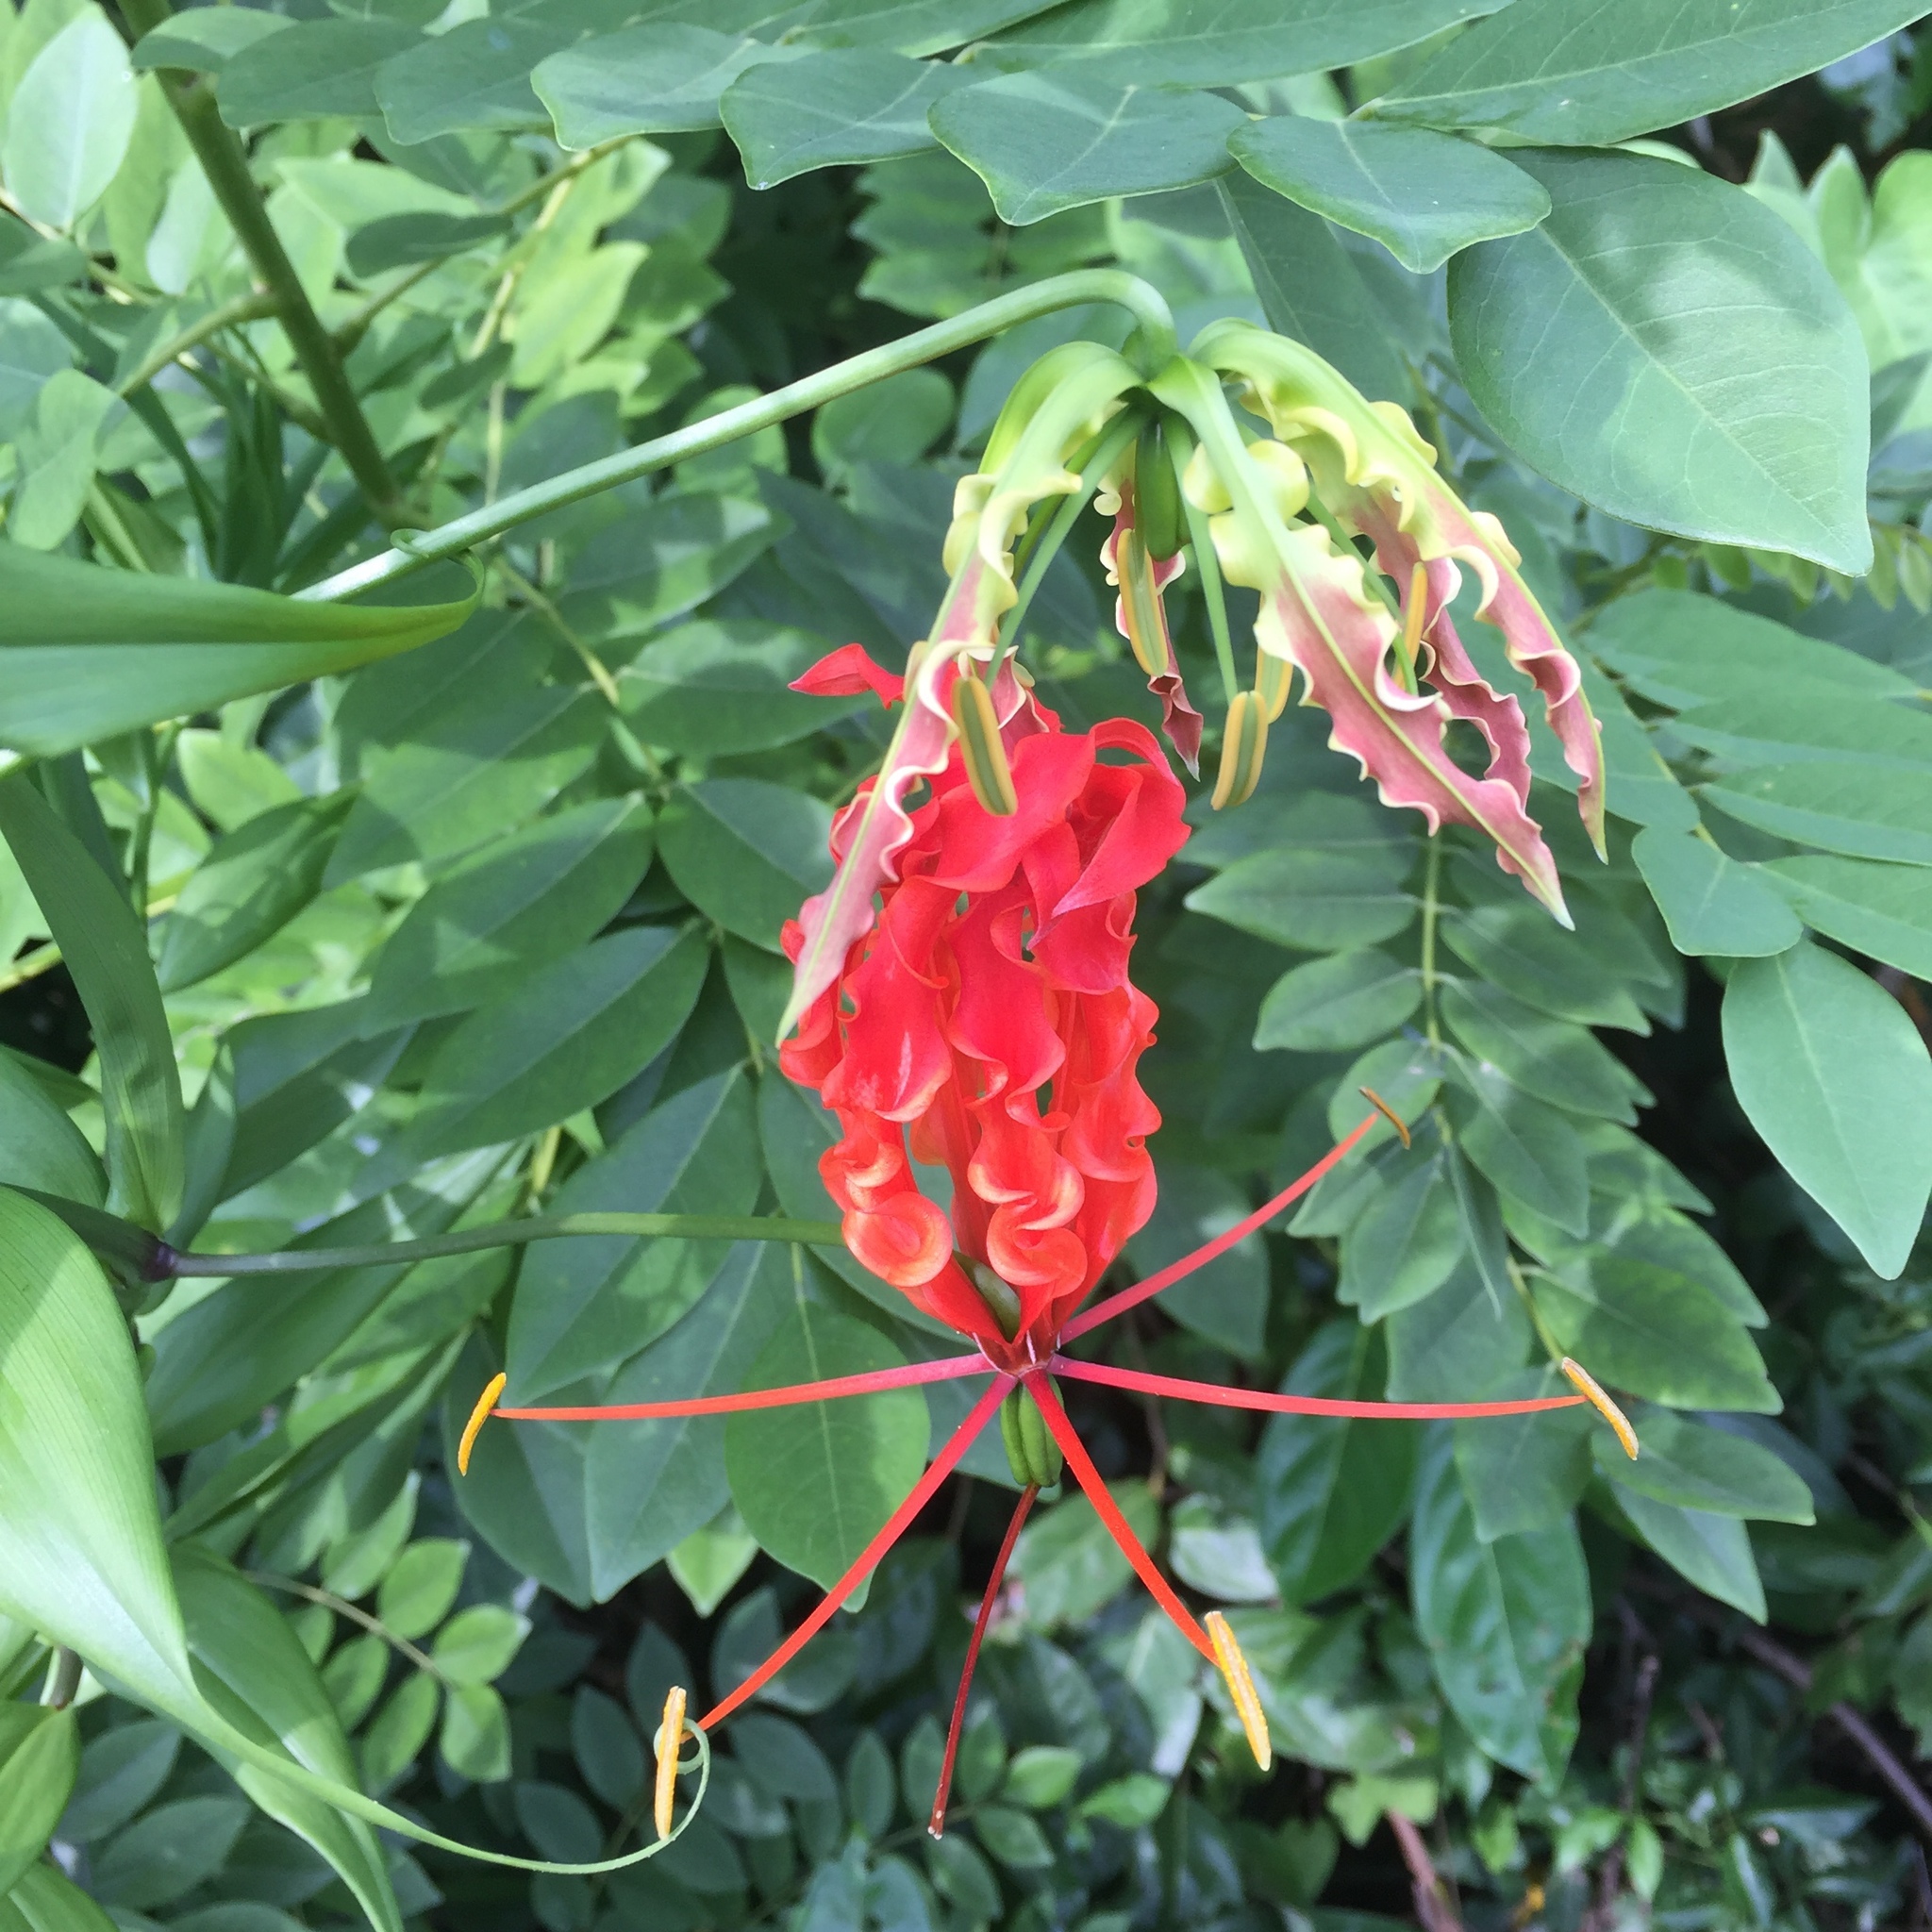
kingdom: Plantae
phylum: Tracheophyta
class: Liliopsida
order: Liliales
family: Colchicaceae
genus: Gloriosa
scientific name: Gloriosa superba
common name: Flame lily
